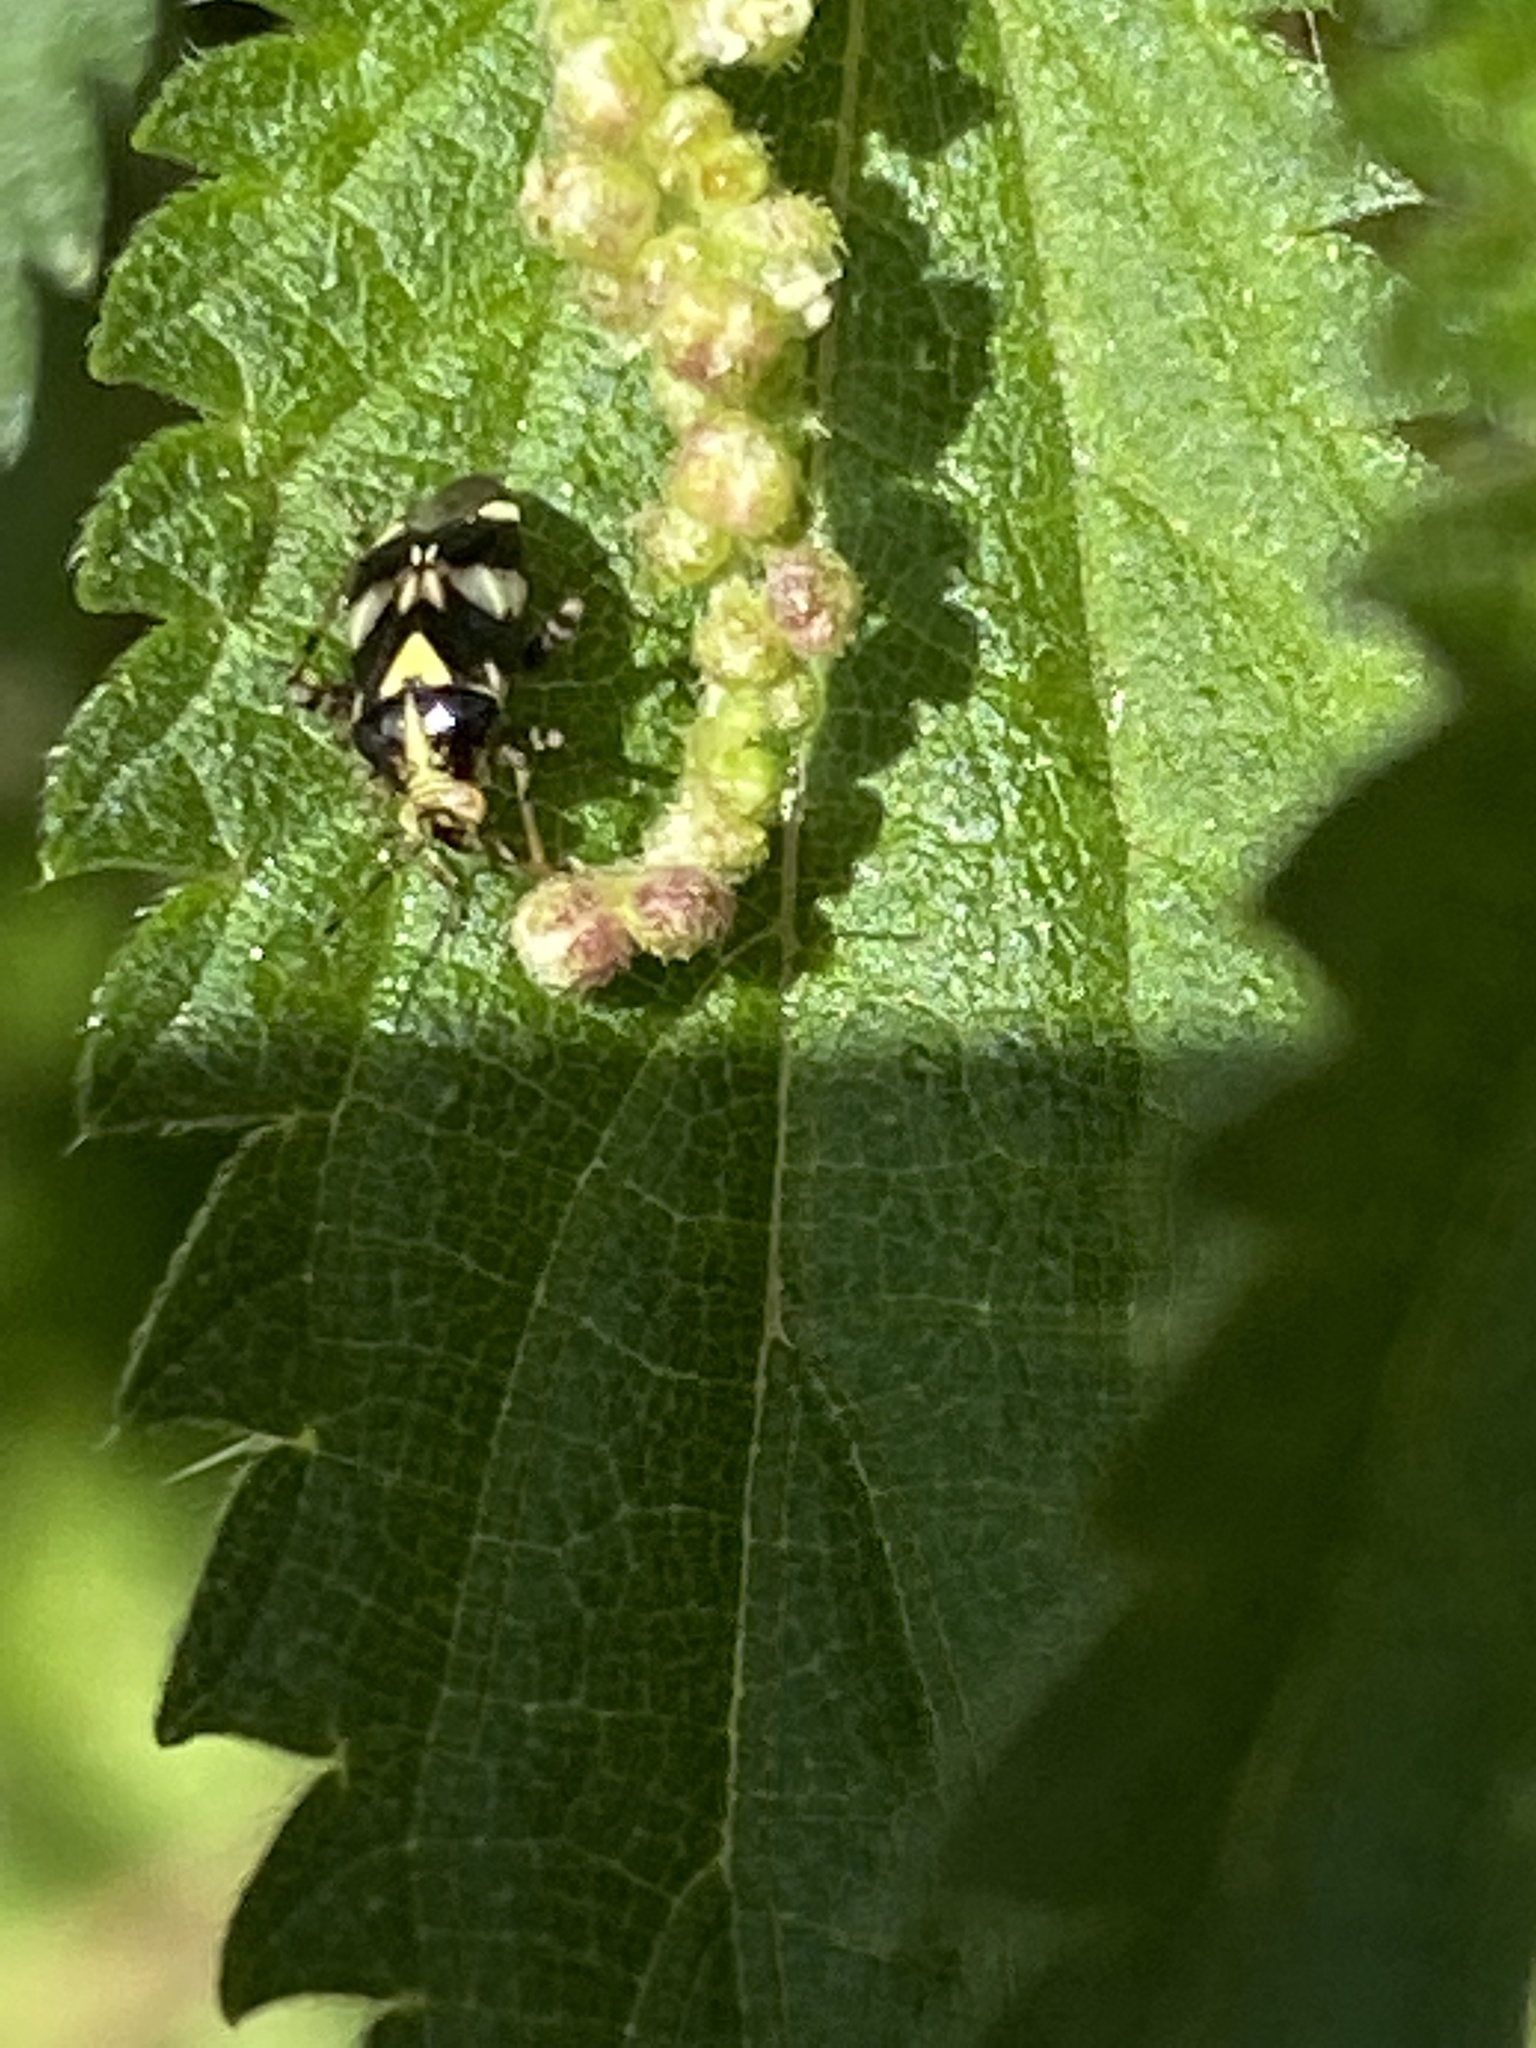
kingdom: Animalia
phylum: Arthropoda
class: Insecta
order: Hemiptera
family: Miridae
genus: Liocoris
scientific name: Liocoris tripustulatus
